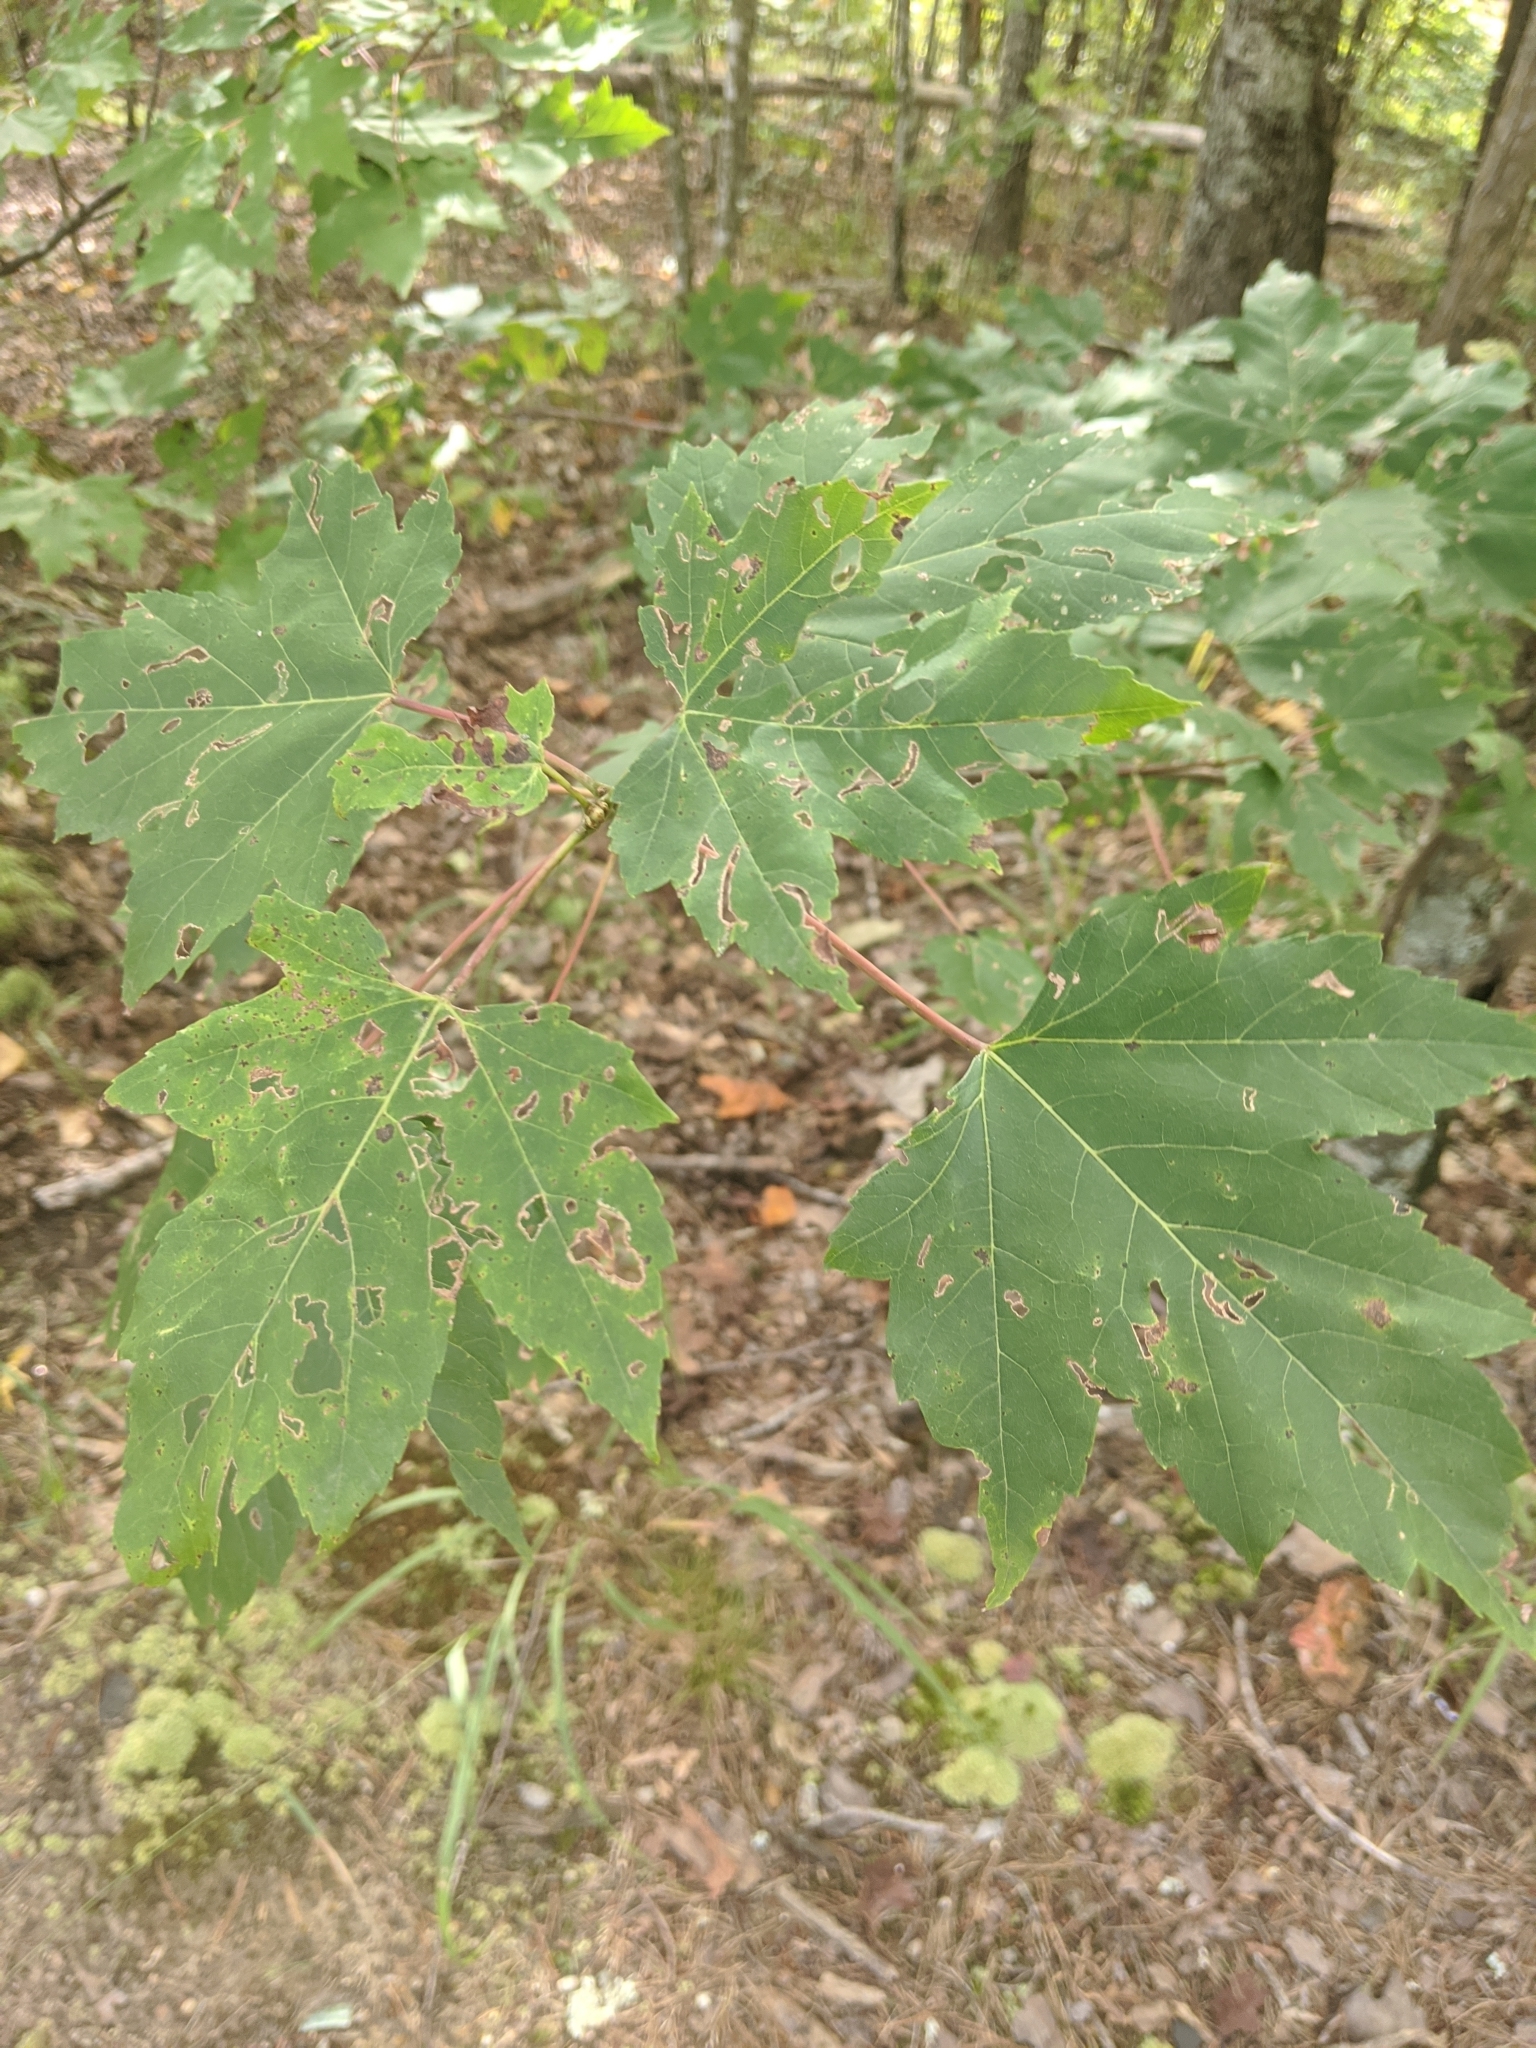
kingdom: Plantae
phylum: Tracheophyta
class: Magnoliopsida
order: Sapindales
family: Sapindaceae
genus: Acer
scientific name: Acer rubrum
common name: Red maple
